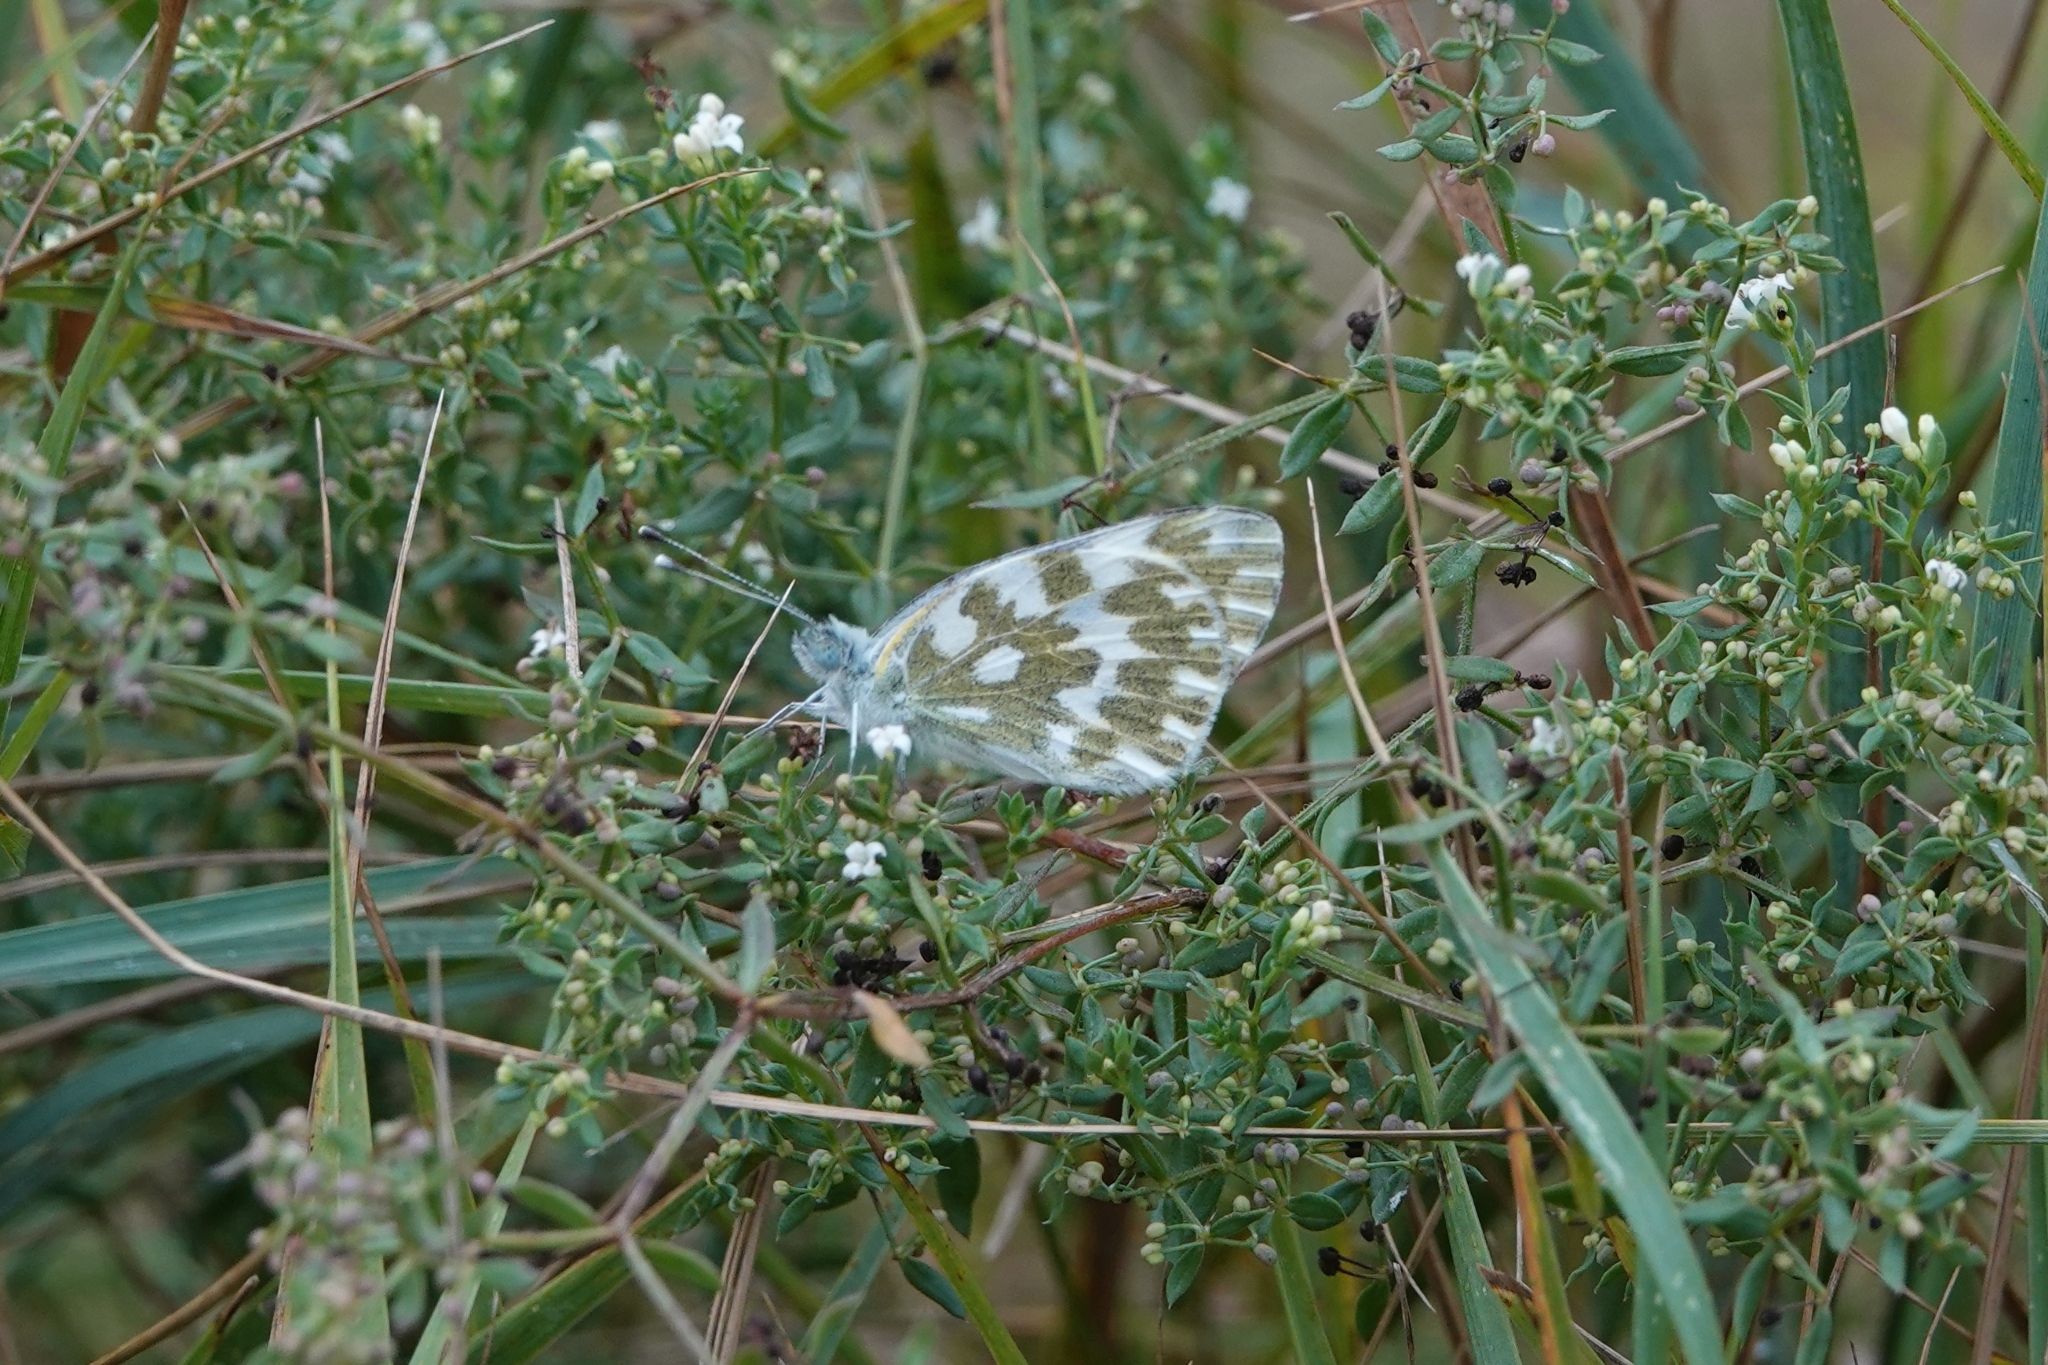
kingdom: Animalia
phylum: Arthropoda
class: Insecta
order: Lepidoptera
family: Pieridae
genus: Pontia
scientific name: Pontia edusa
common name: Eastern bath white
